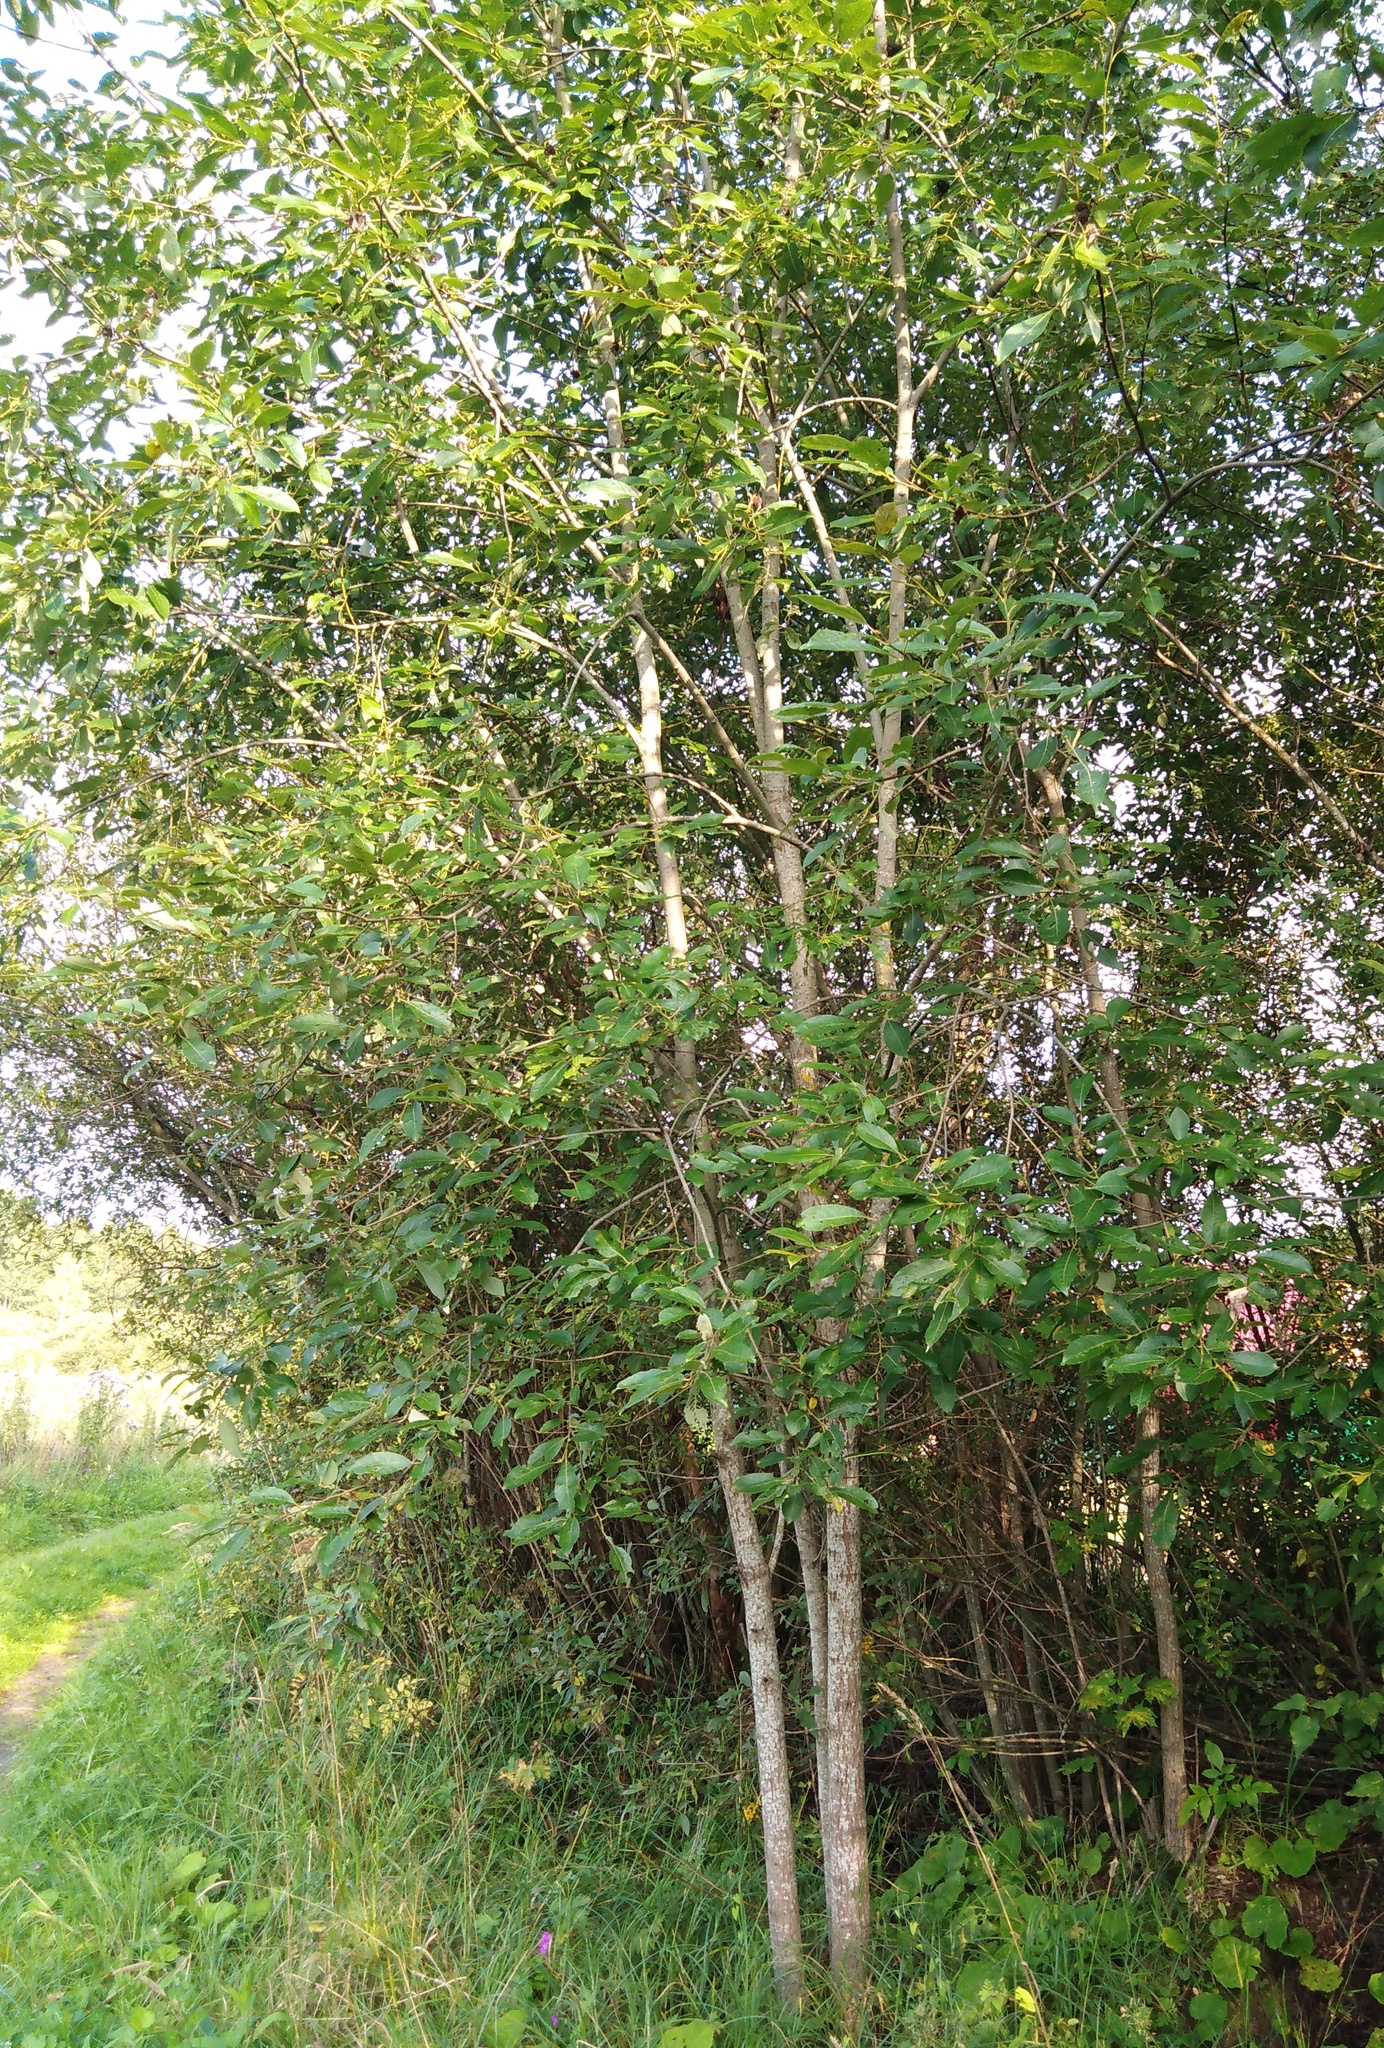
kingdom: Plantae
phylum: Tracheophyta
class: Magnoliopsida
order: Malpighiales
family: Salicaceae
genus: Salix
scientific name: Salix caprea
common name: Goat willow
